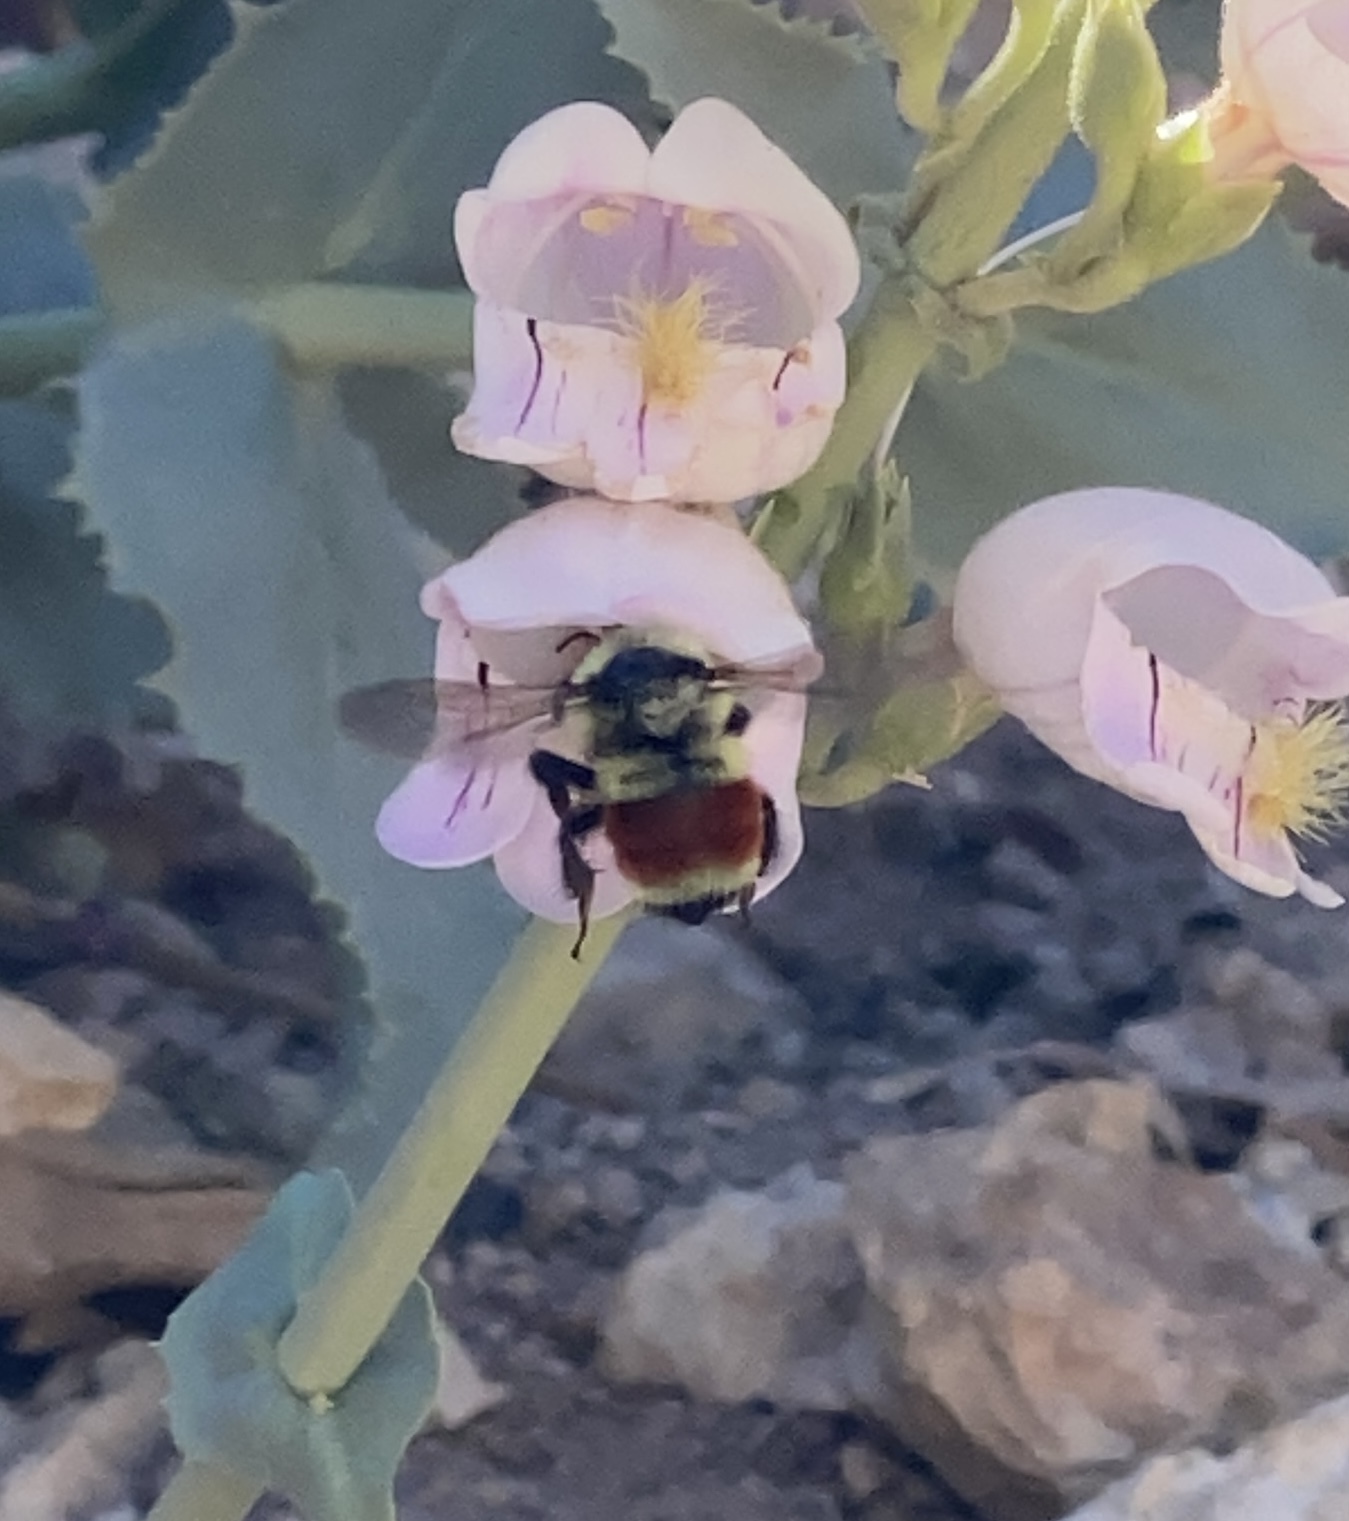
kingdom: Animalia
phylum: Arthropoda
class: Insecta
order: Hymenoptera
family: Apidae
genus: Bombus
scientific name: Bombus huntii
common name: Hunt bumble bee
